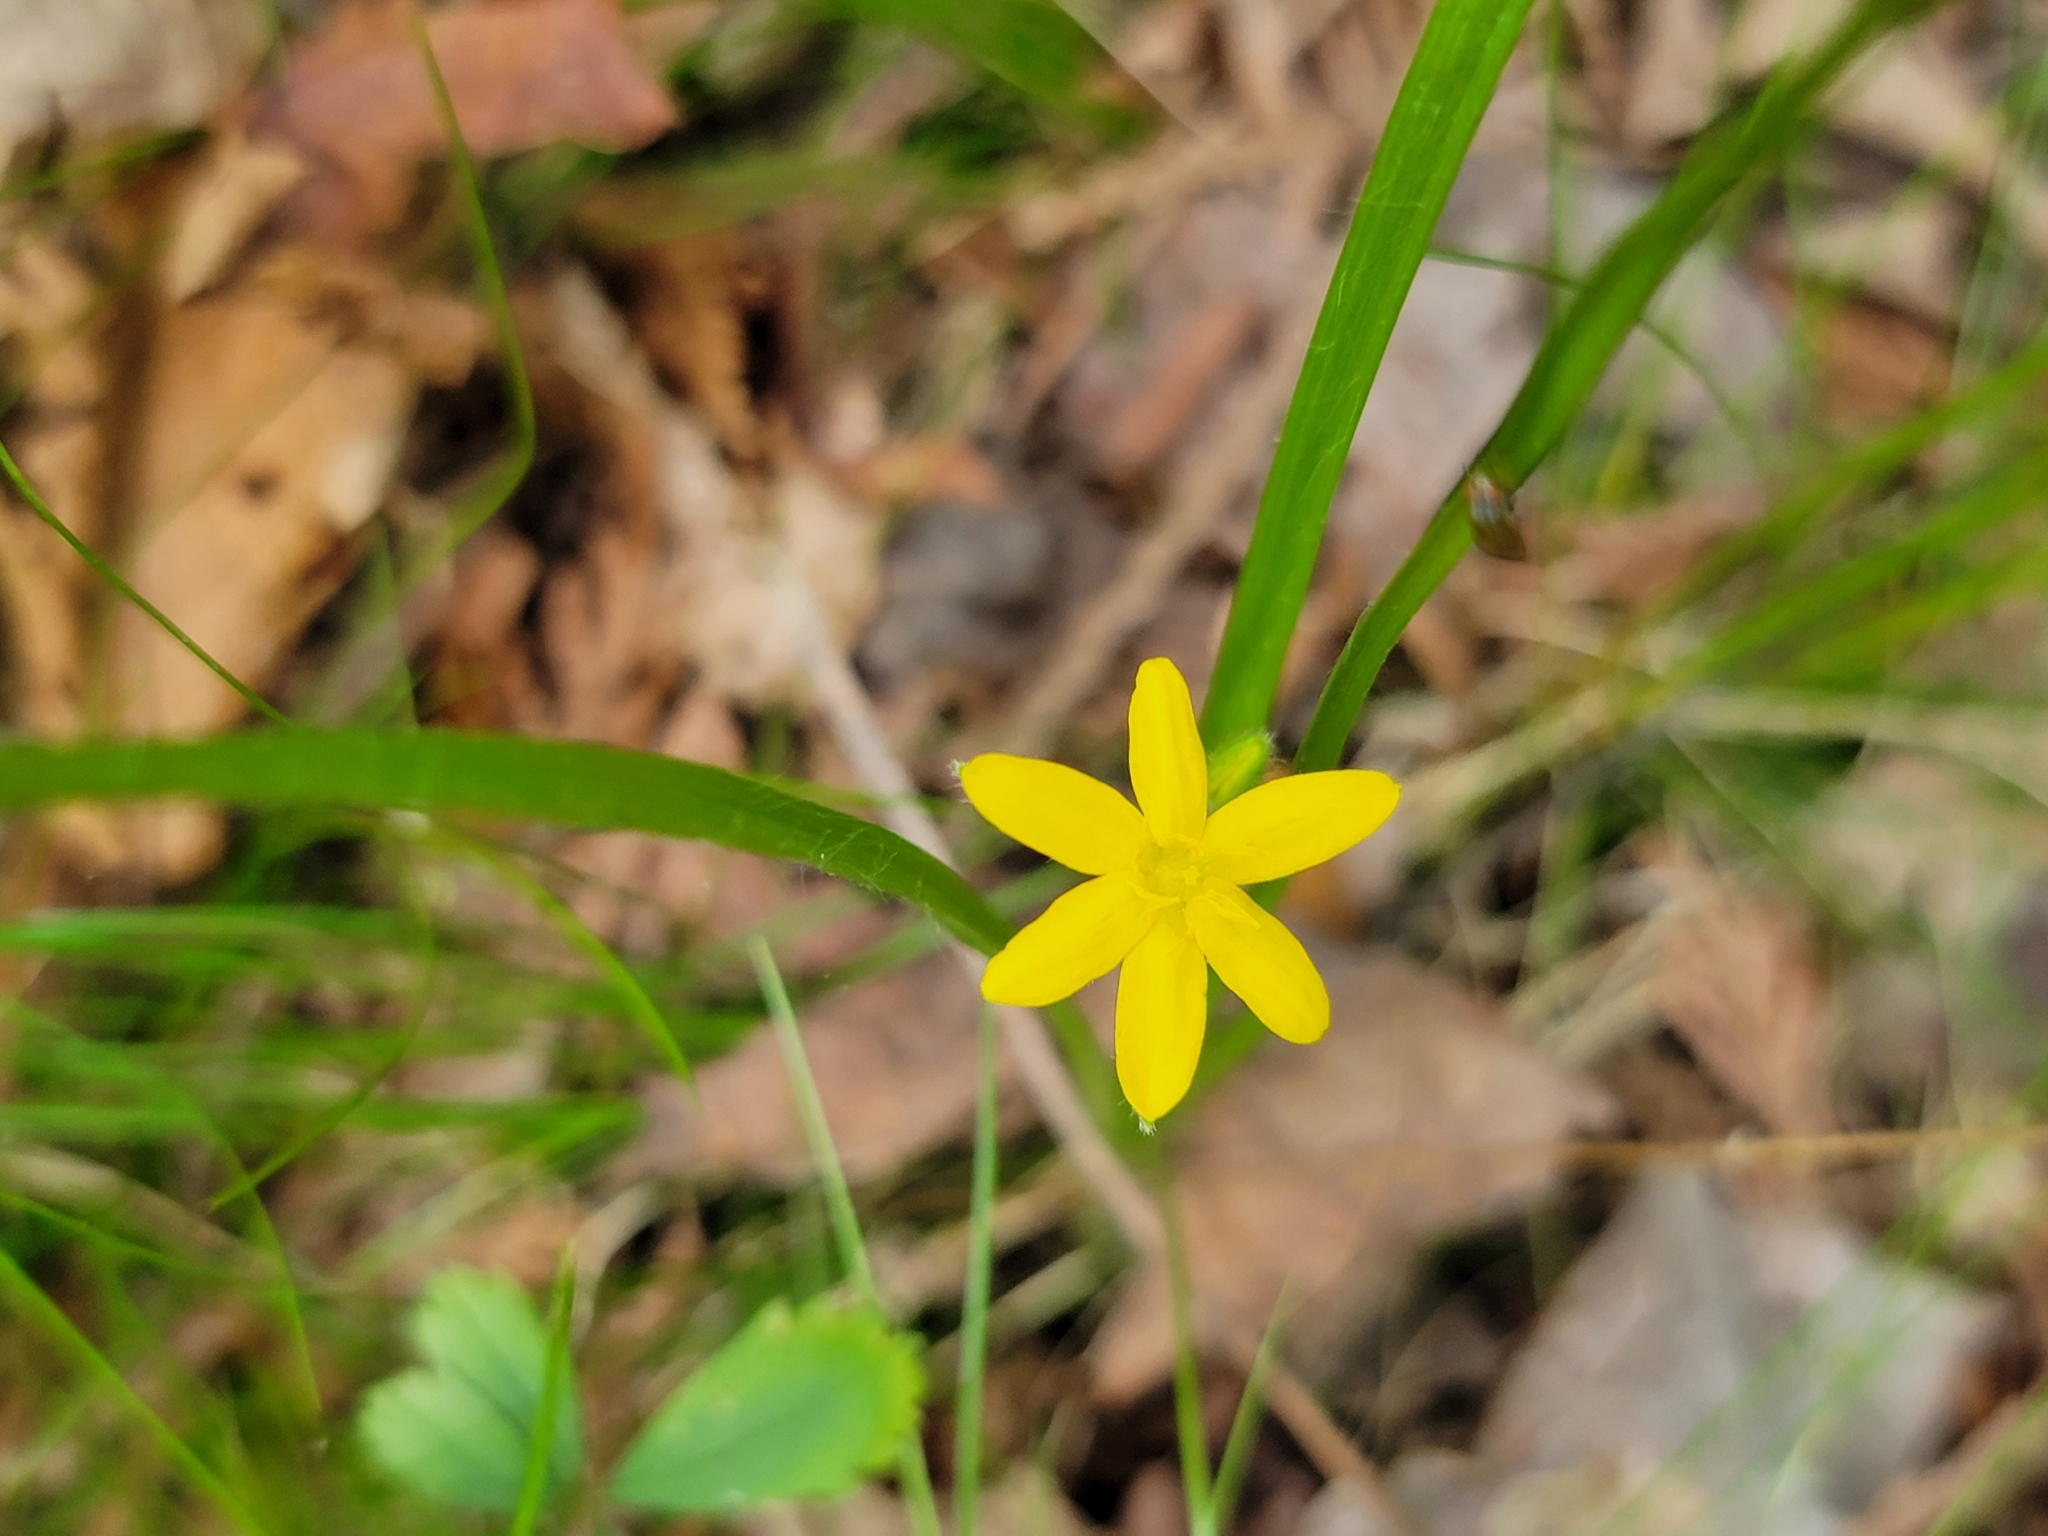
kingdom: Plantae
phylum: Tracheophyta
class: Liliopsida
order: Asparagales
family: Hypoxidaceae
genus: Hypoxis
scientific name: Hypoxis hirsuta
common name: Common goldstar
